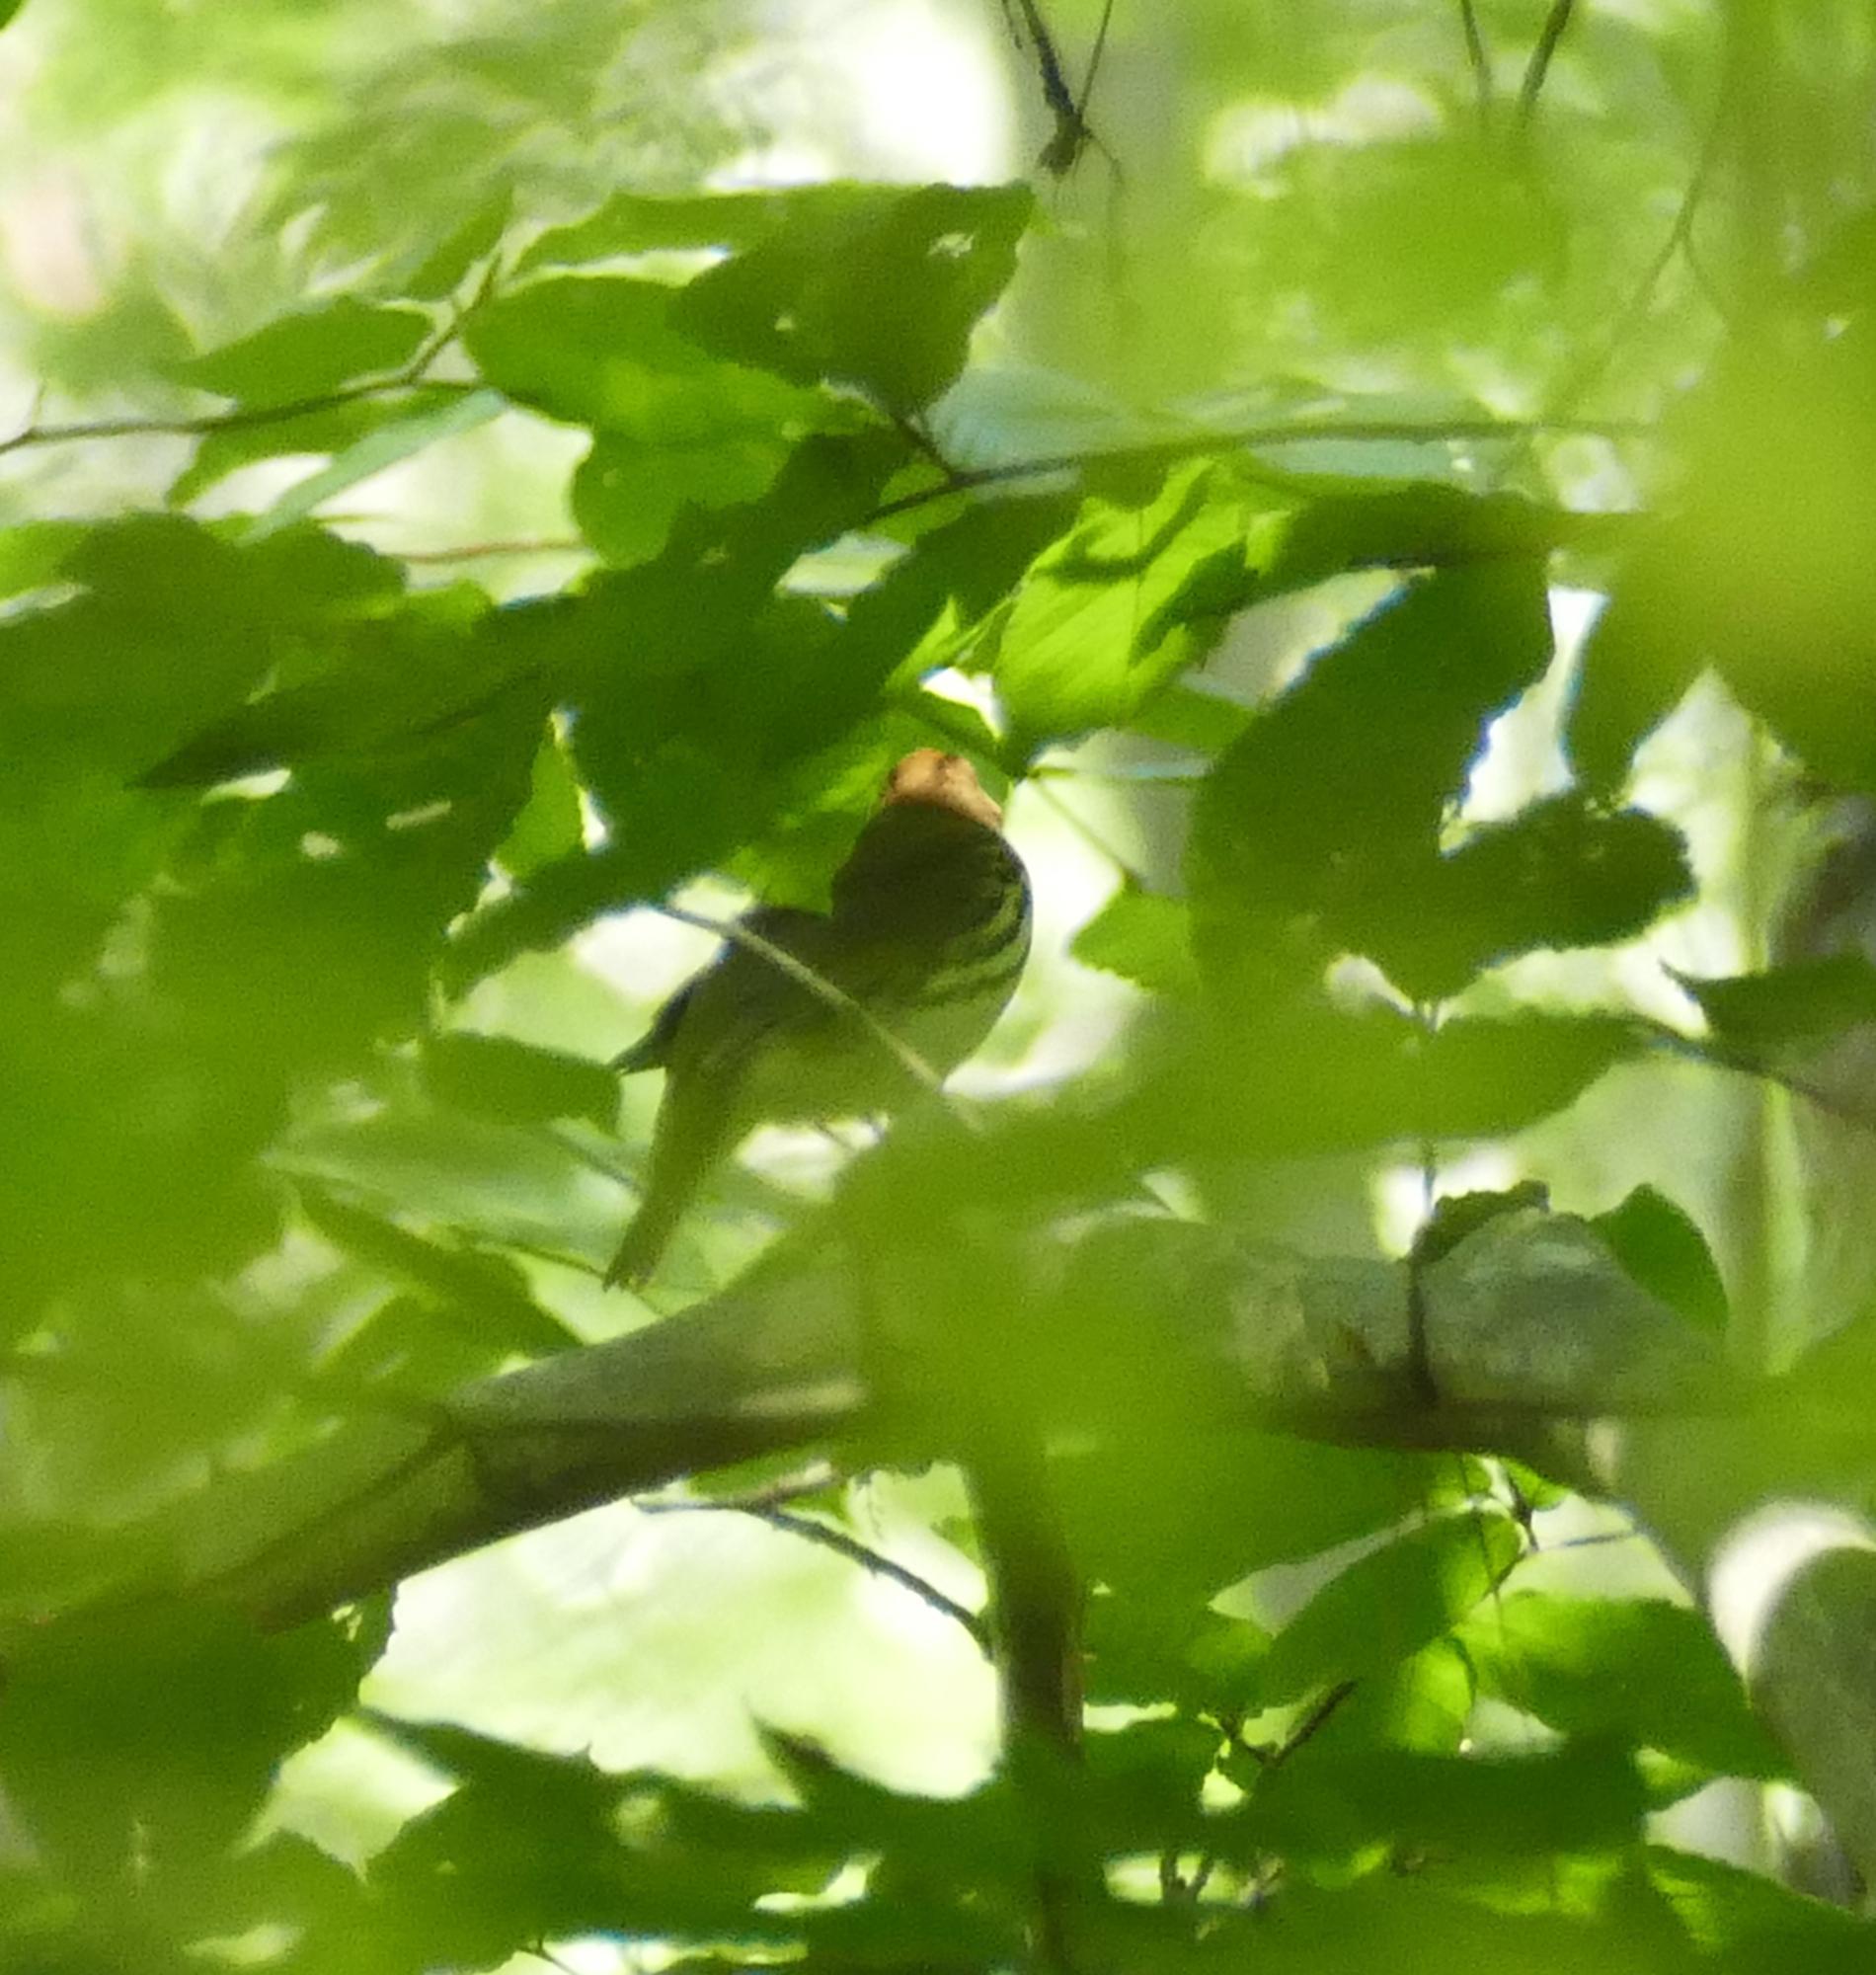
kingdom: Animalia
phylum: Chordata
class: Aves
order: Passeriformes
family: Parulidae
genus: Seiurus
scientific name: Seiurus aurocapilla
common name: Ovenbird
